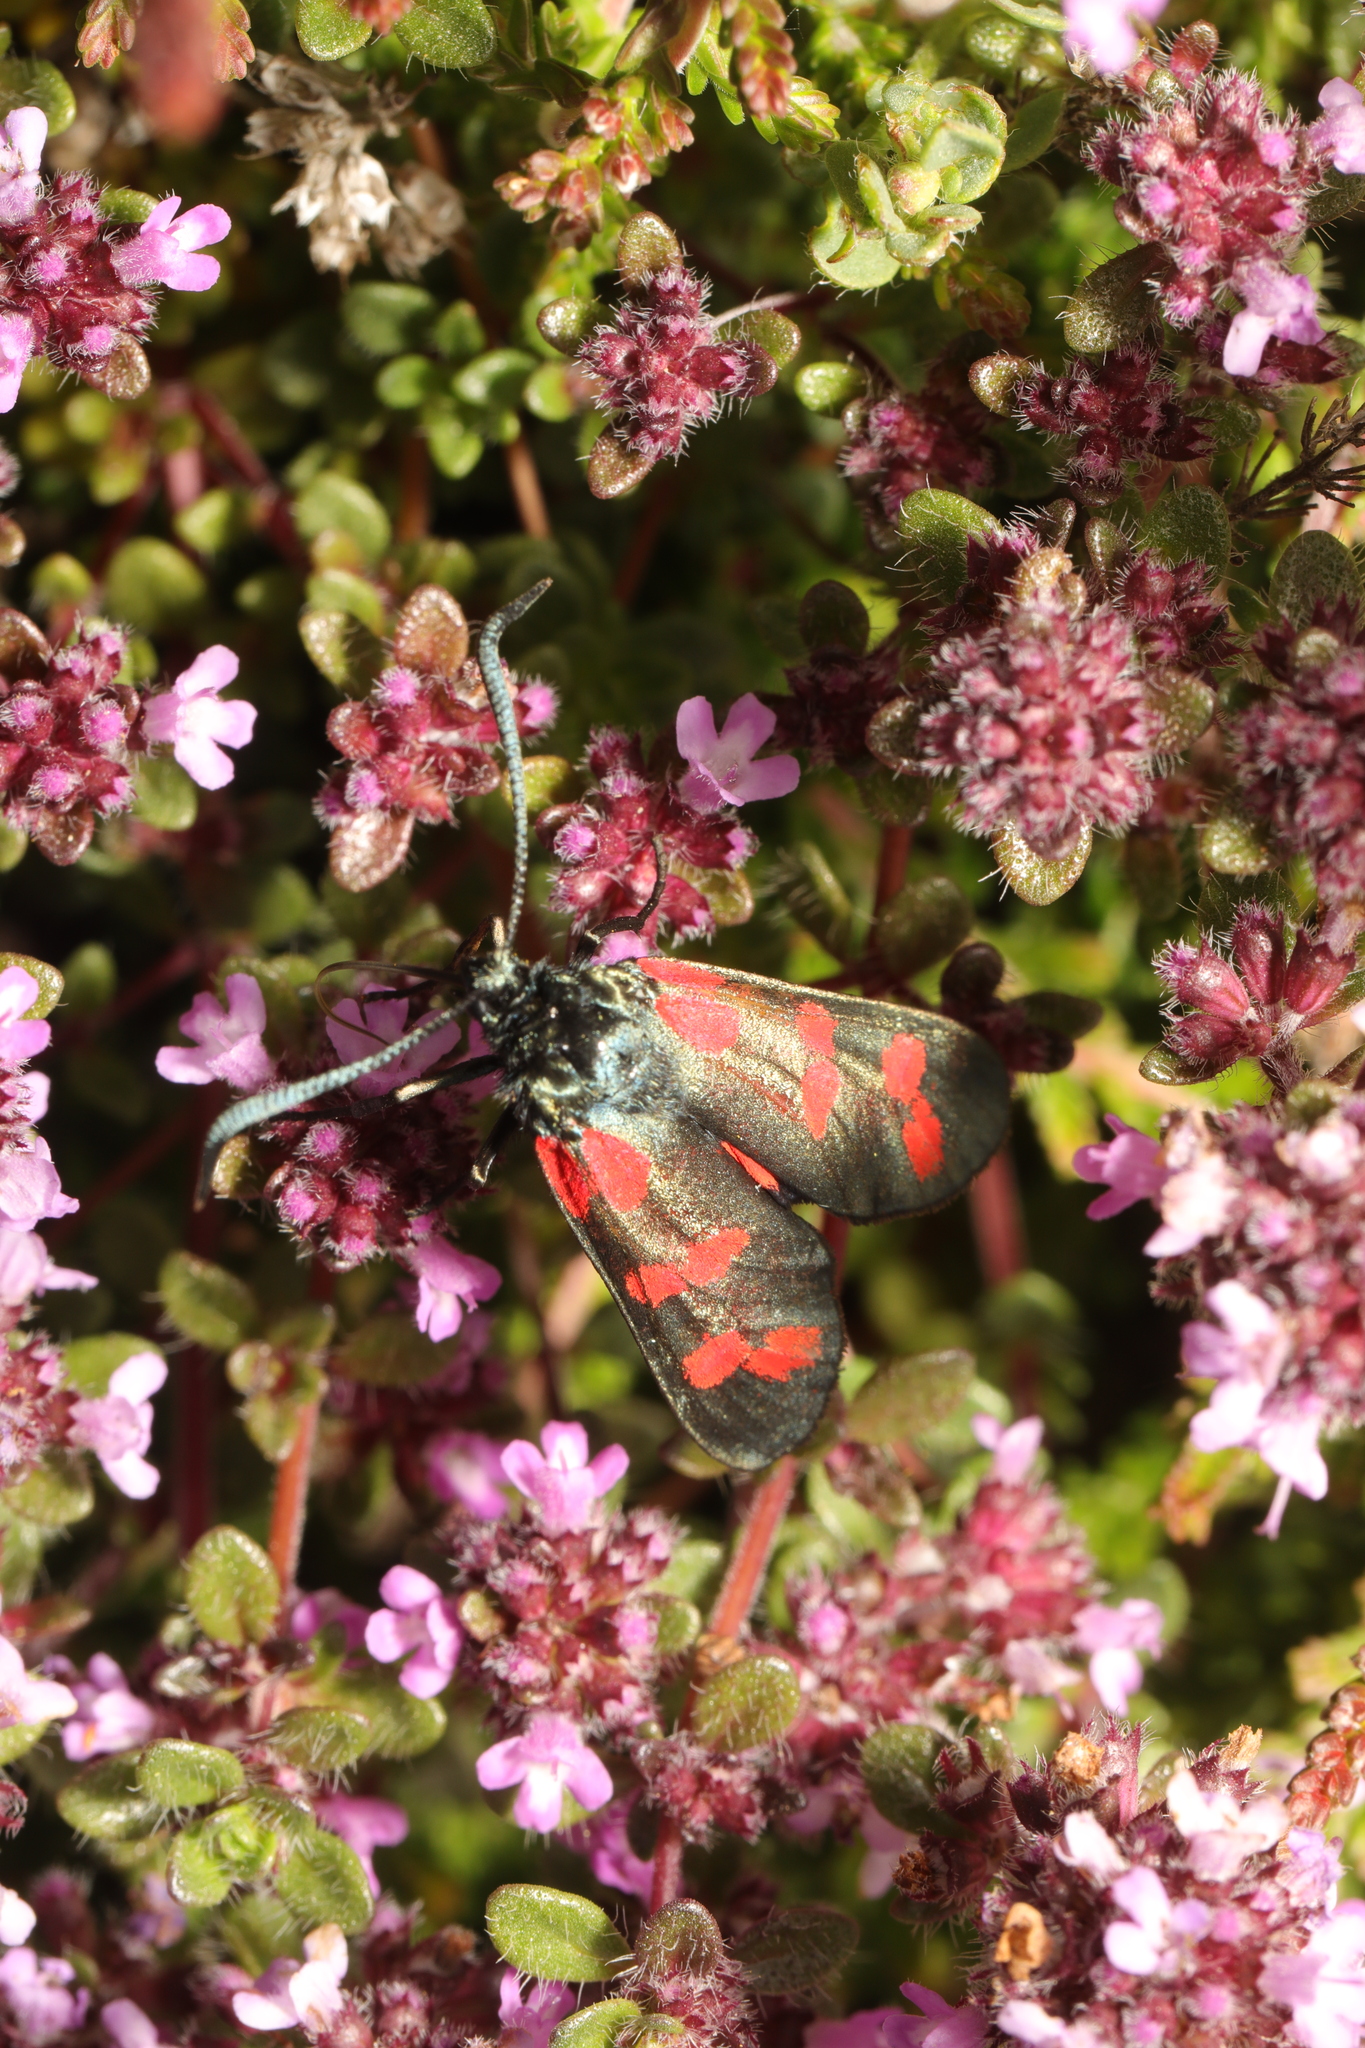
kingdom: Animalia
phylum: Arthropoda
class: Insecta
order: Lepidoptera
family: Zygaenidae
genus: Zygaena
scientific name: Zygaena filipendulae
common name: Six-spot burnet
